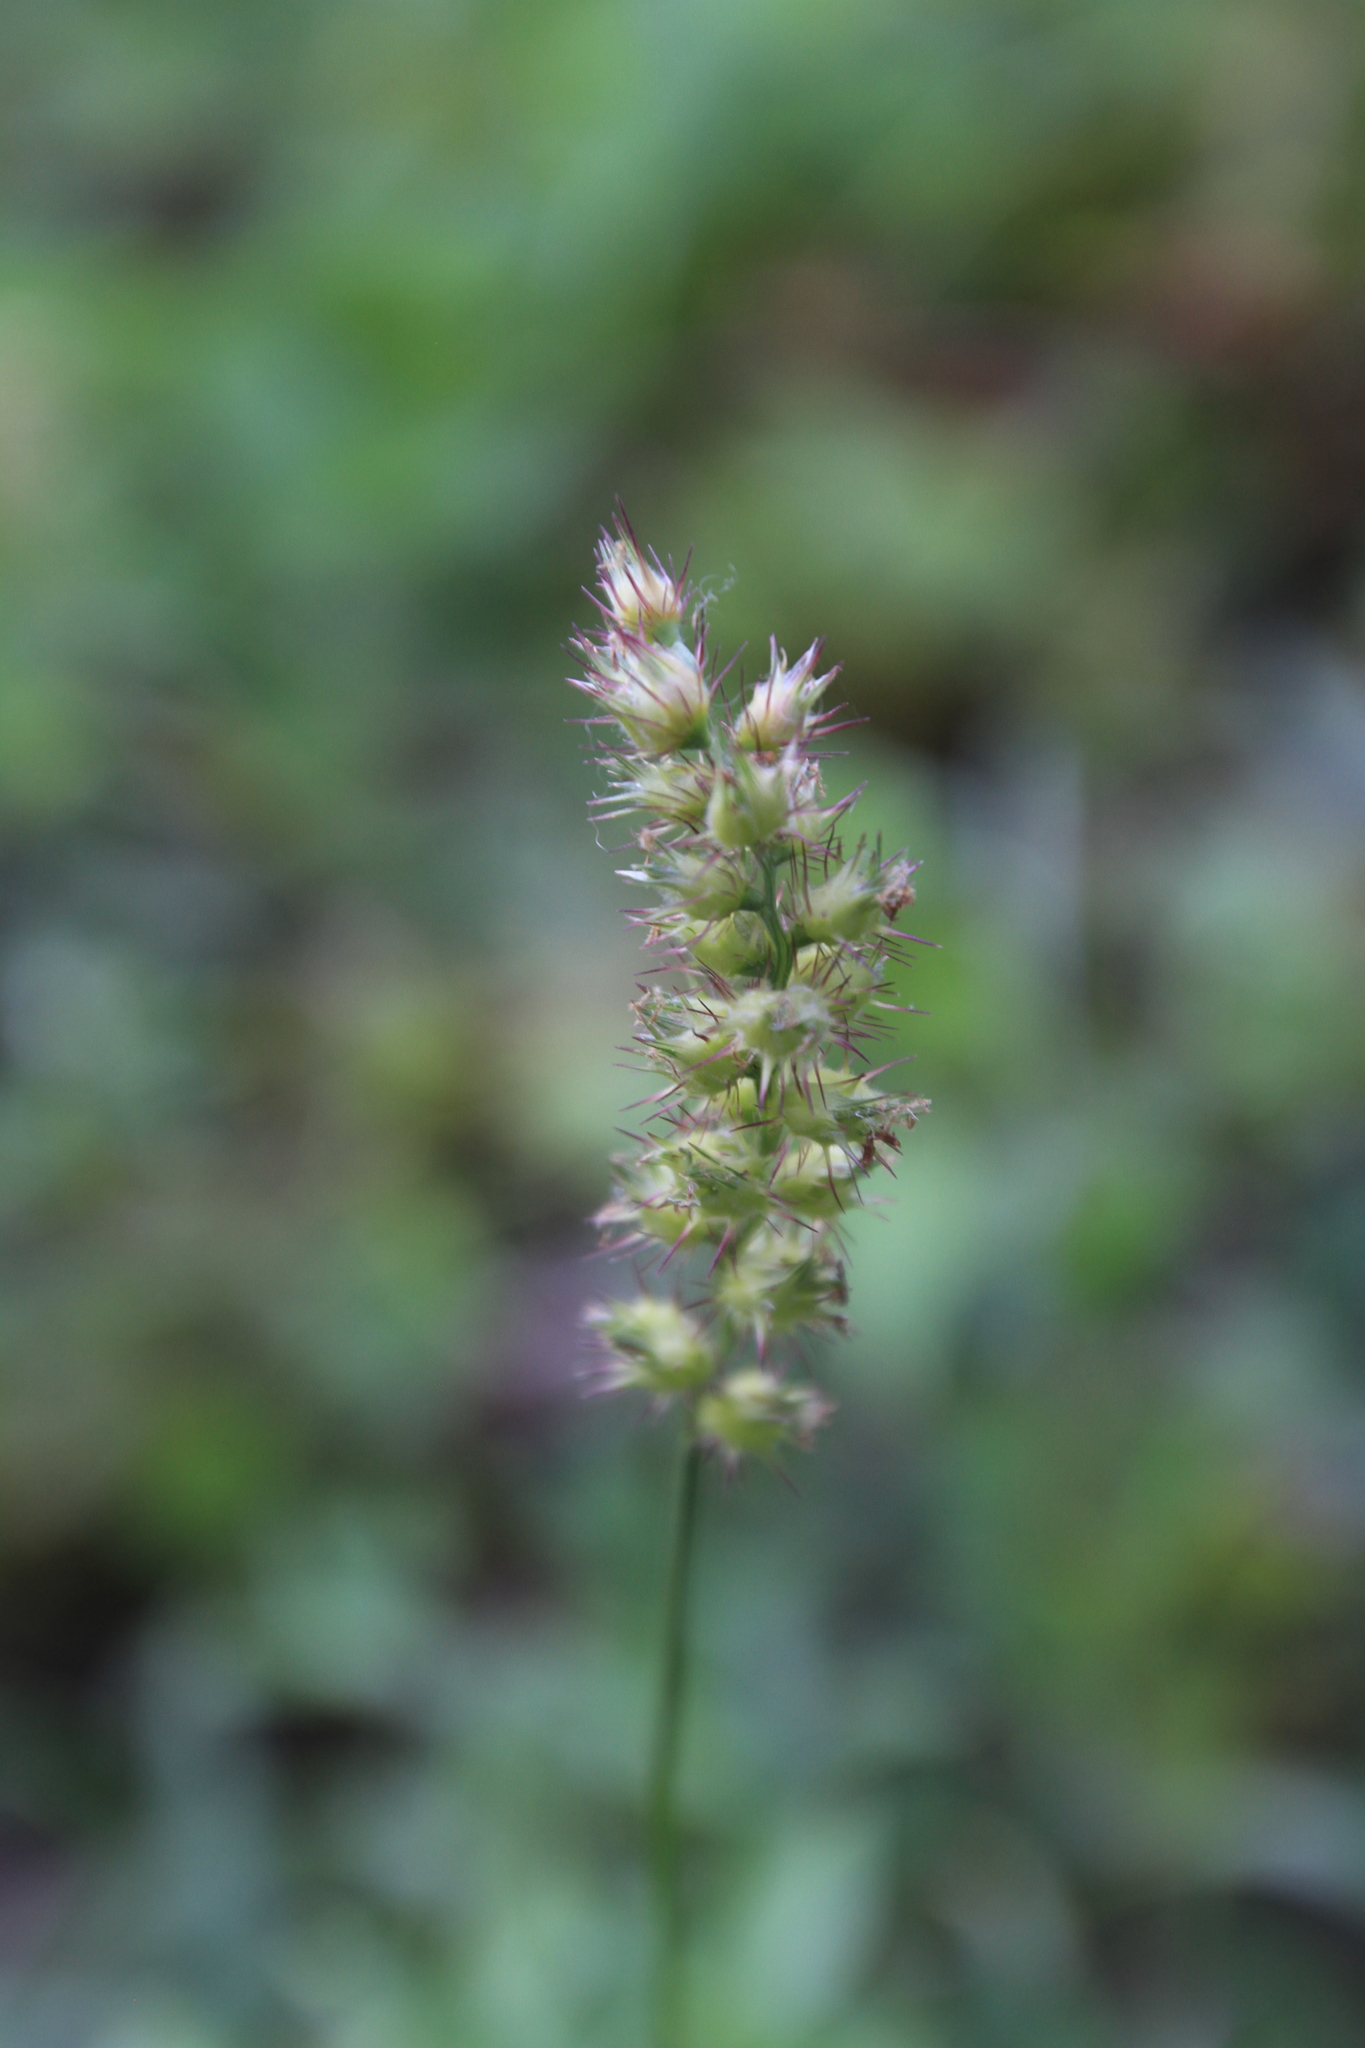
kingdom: Plantae
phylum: Tracheophyta
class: Liliopsida
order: Poales
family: Poaceae
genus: Cenchrus
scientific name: Cenchrus echinatus
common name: Southern sandbur
